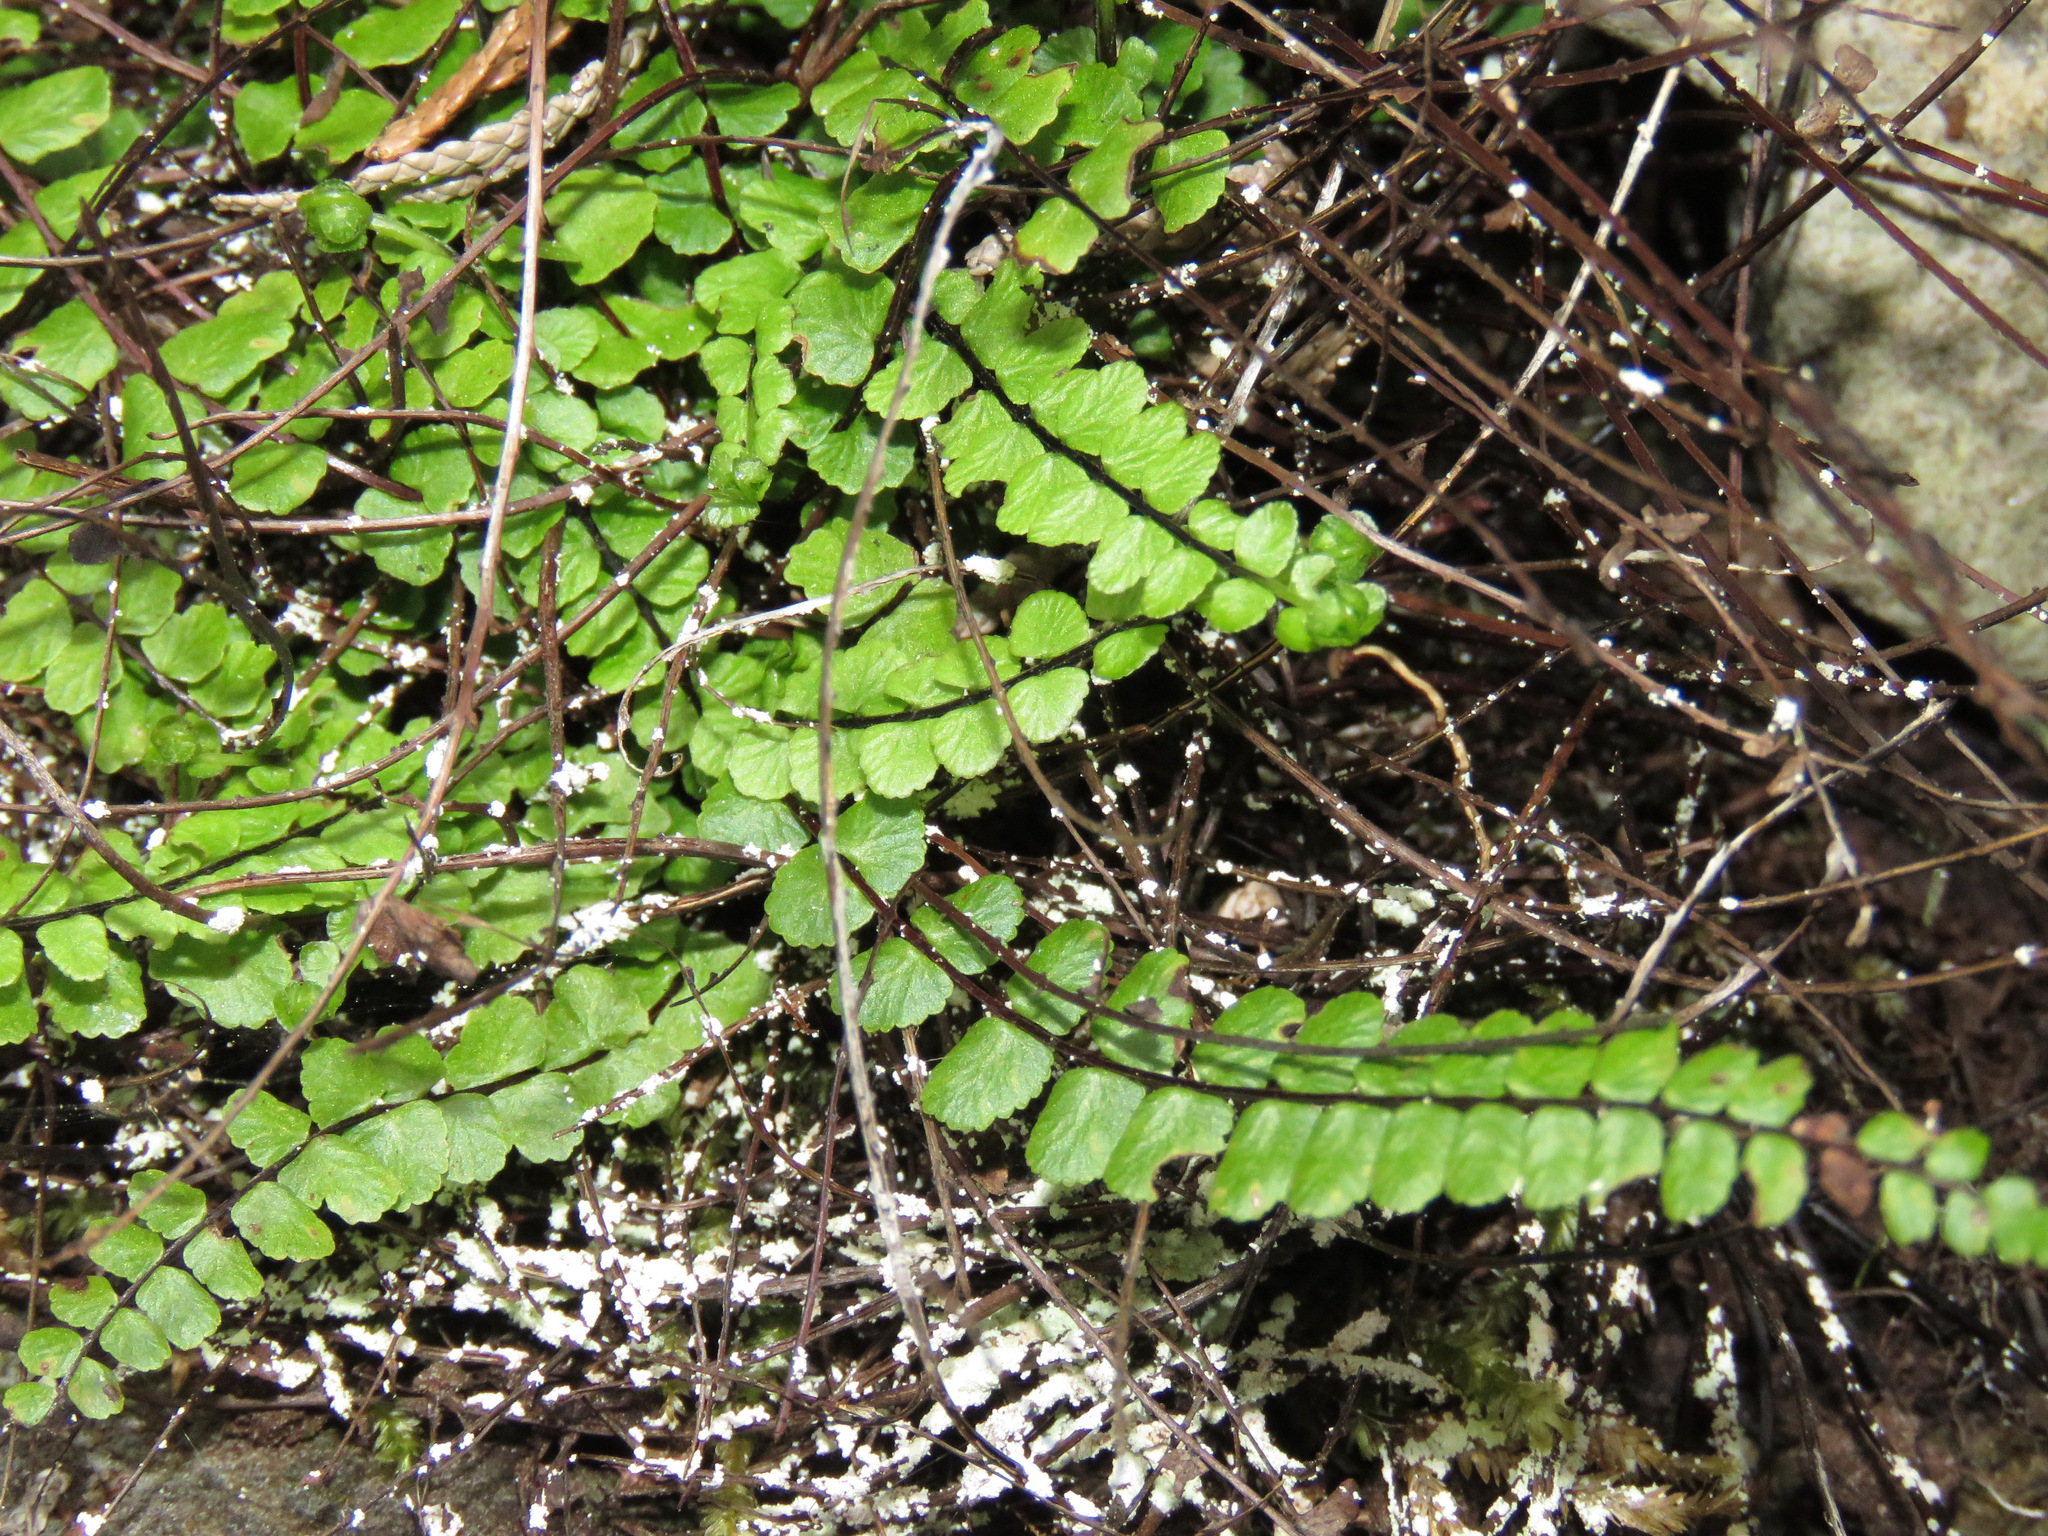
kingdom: Plantae
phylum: Tracheophyta
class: Polypodiopsida
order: Polypodiales
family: Aspleniaceae
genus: Asplenium
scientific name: Asplenium trichomanes
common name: Maidenhair spleenwort
